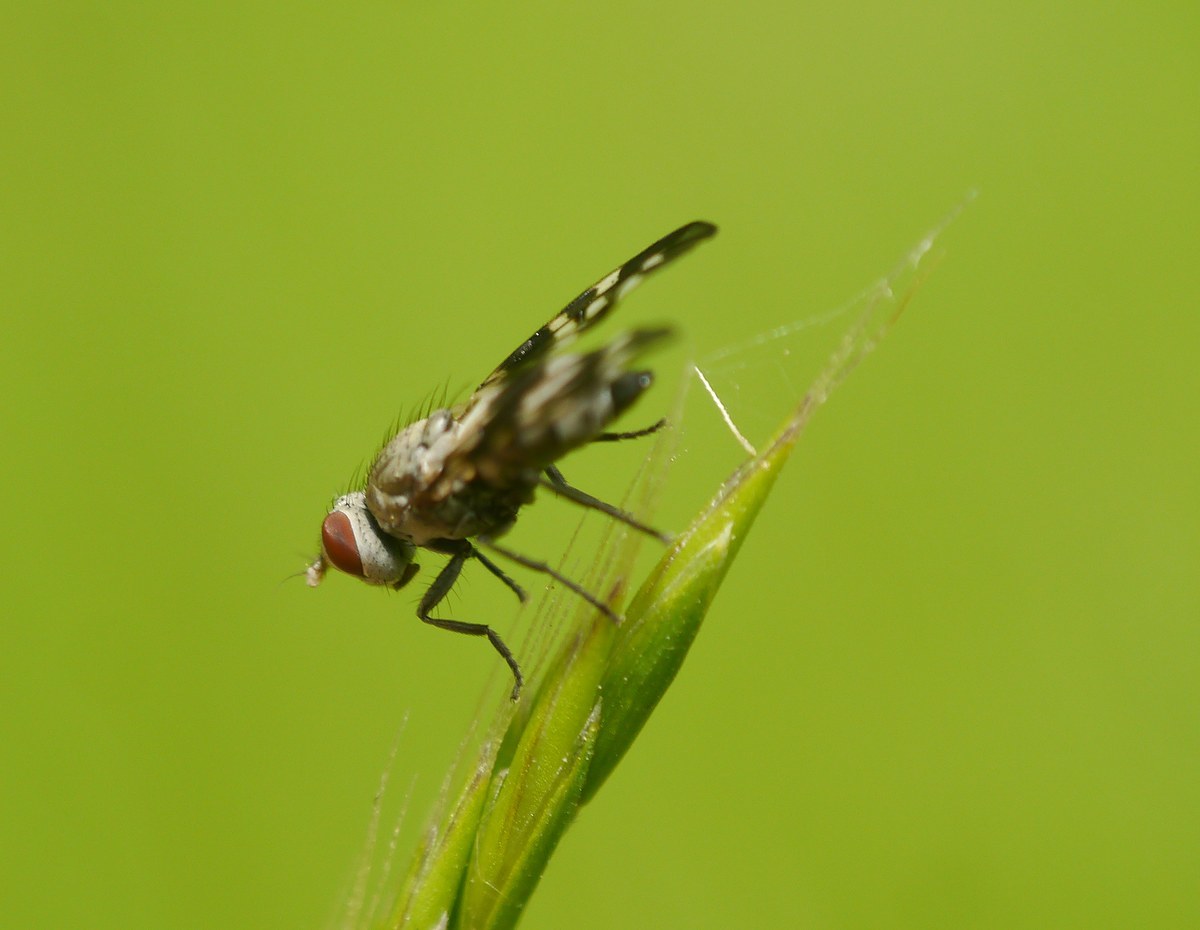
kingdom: Animalia
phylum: Arthropoda
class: Insecta
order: Diptera
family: Ulidiidae
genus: Otites
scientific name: Otites centralis
